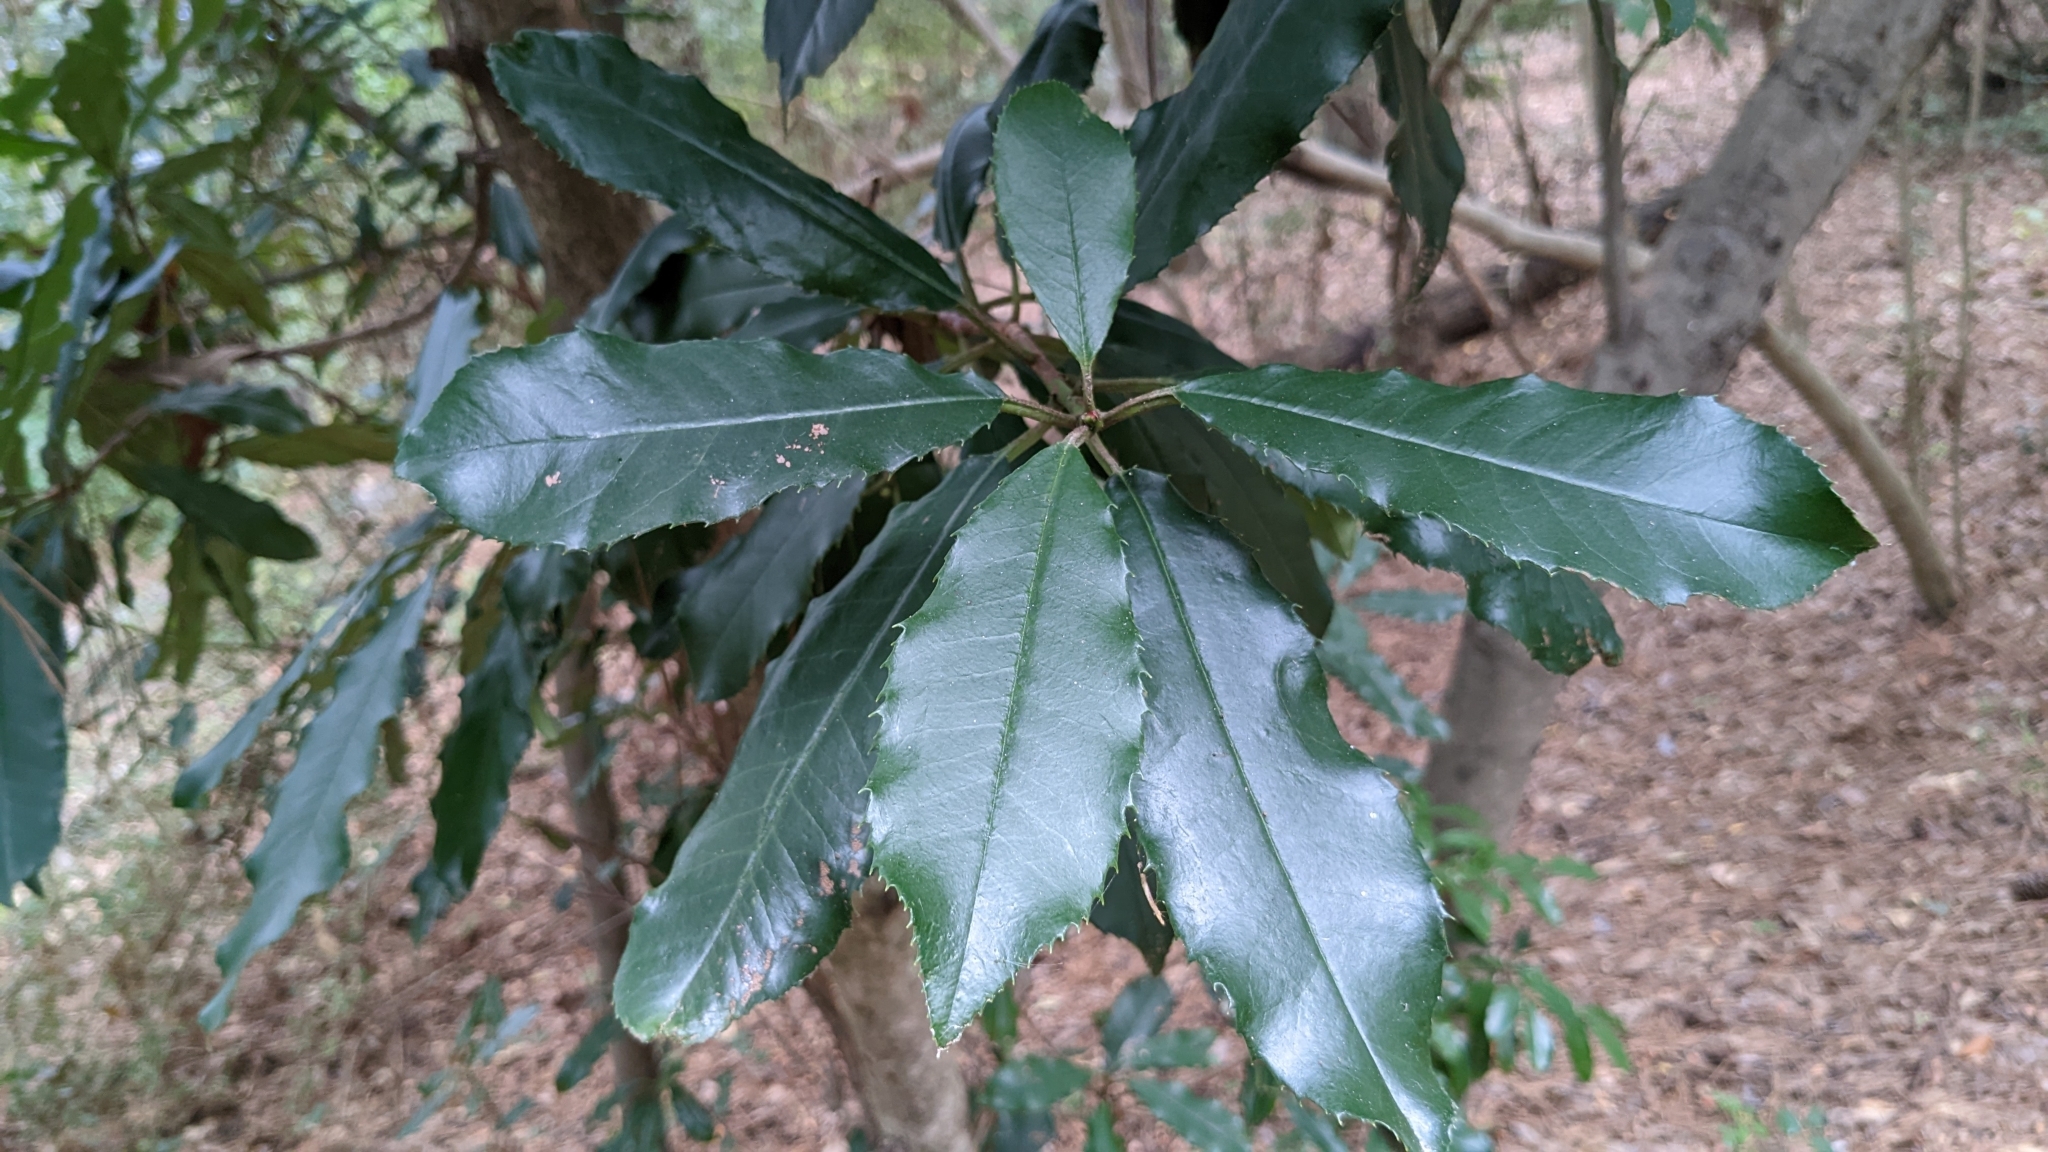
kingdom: Plantae
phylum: Tracheophyta
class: Magnoliopsida
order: Rosales
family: Rosaceae
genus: Photinia
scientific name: Photinia serratifolia
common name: Taiwanese photinia
